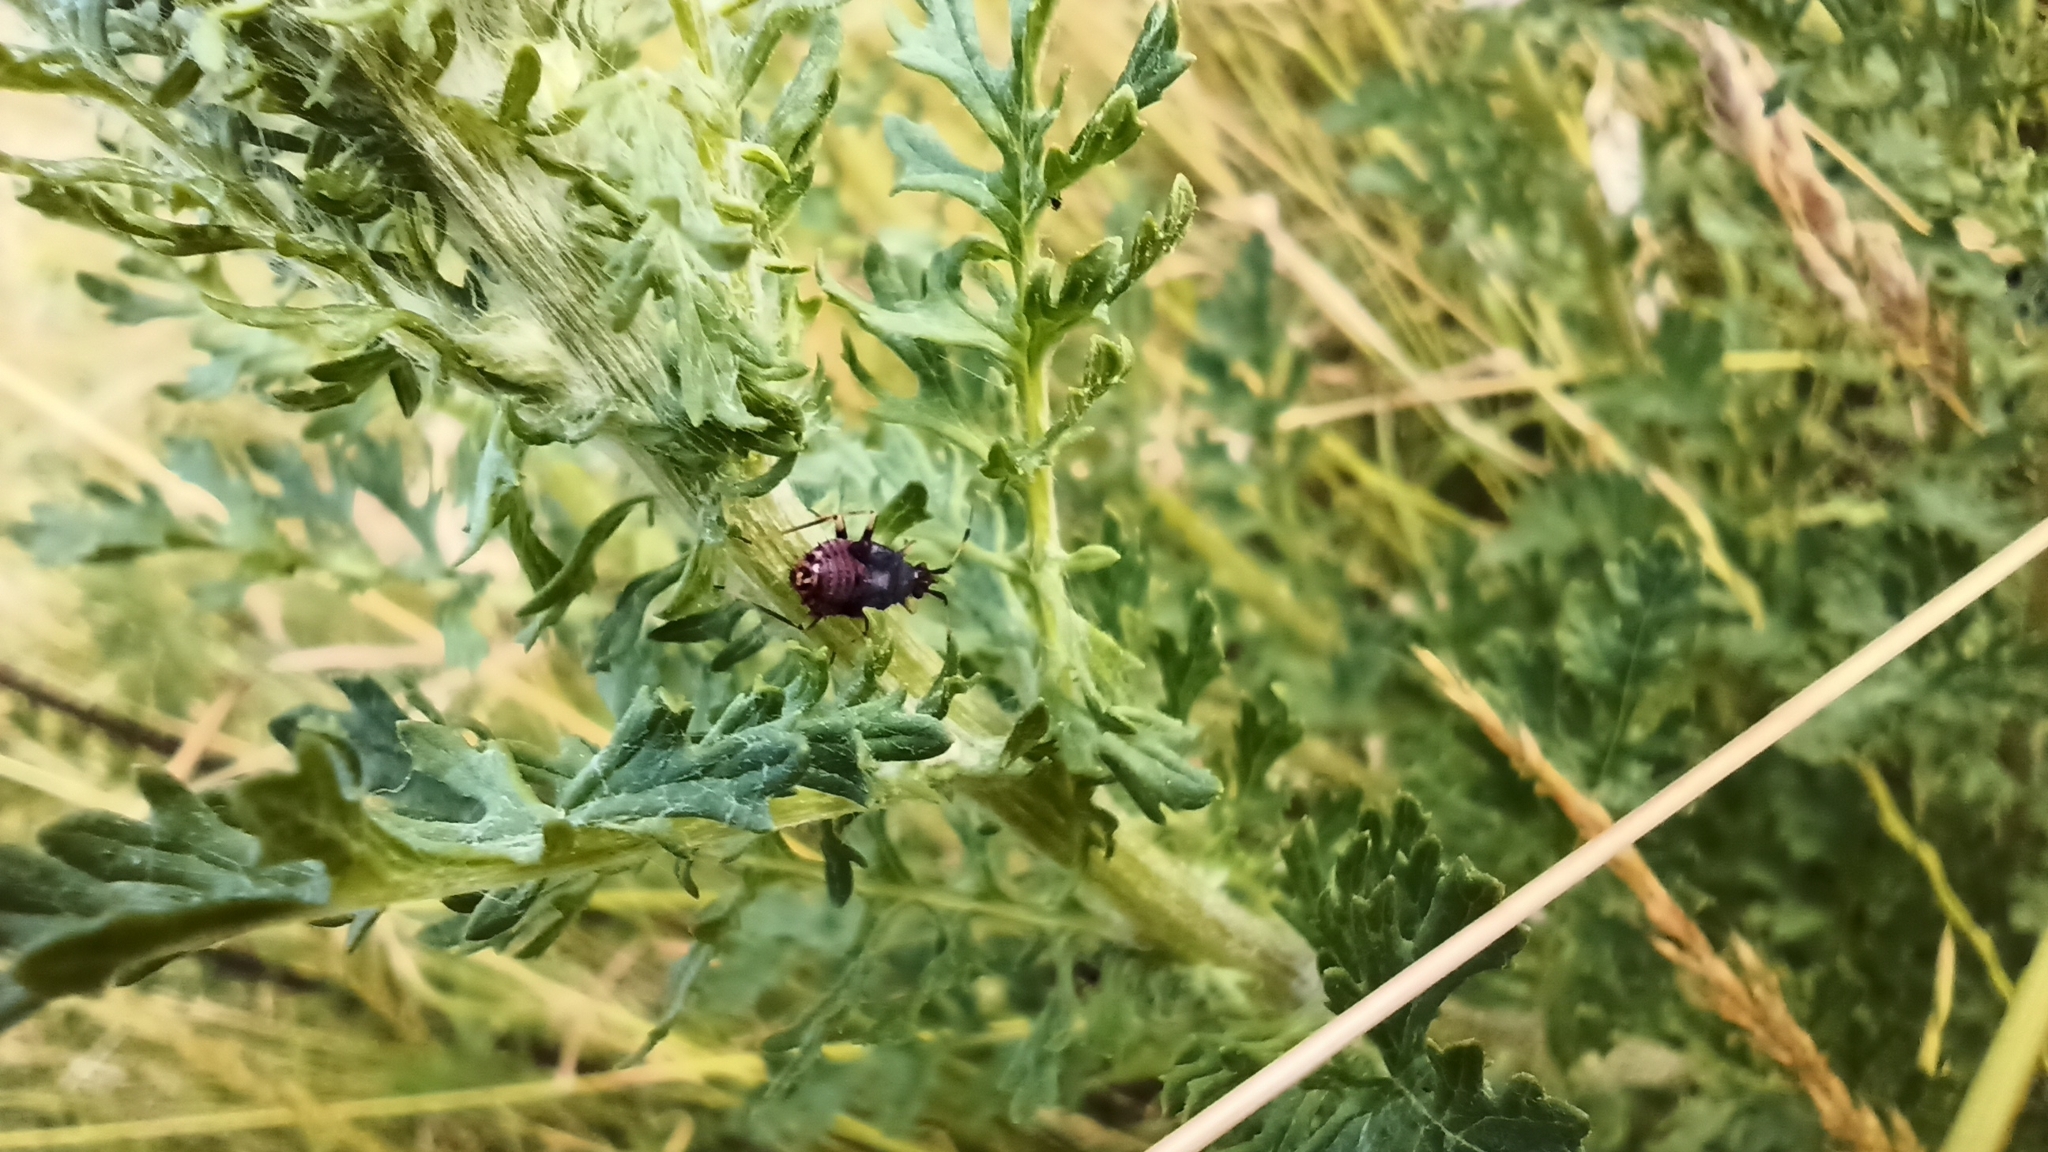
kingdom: Animalia
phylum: Arthropoda
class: Insecta
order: Hemiptera
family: Miridae
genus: Deraeocoris
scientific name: Deraeocoris ruber
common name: Plant bug
